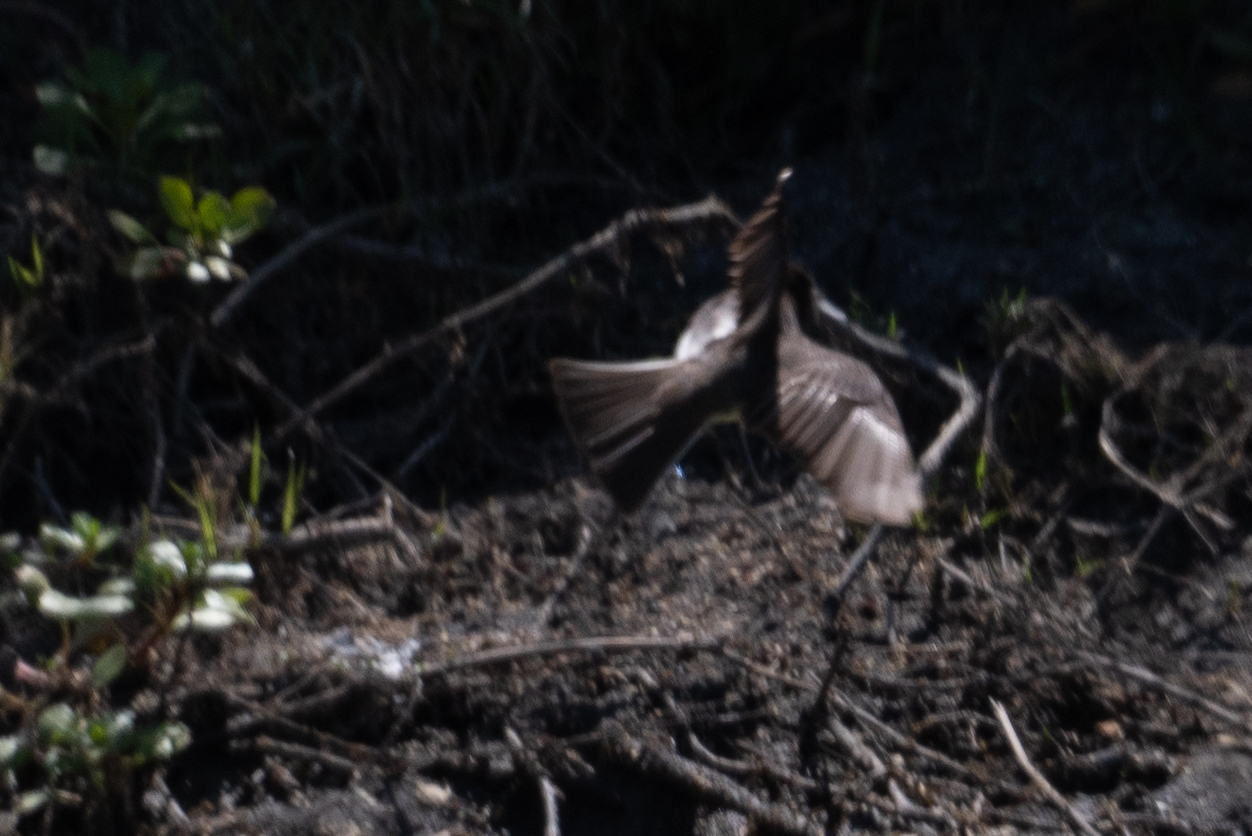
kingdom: Animalia
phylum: Chordata
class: Aves
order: Passeriformes
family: Tyrannidae
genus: Sayornis
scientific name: Sayornis nigricans
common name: Black phoebe
